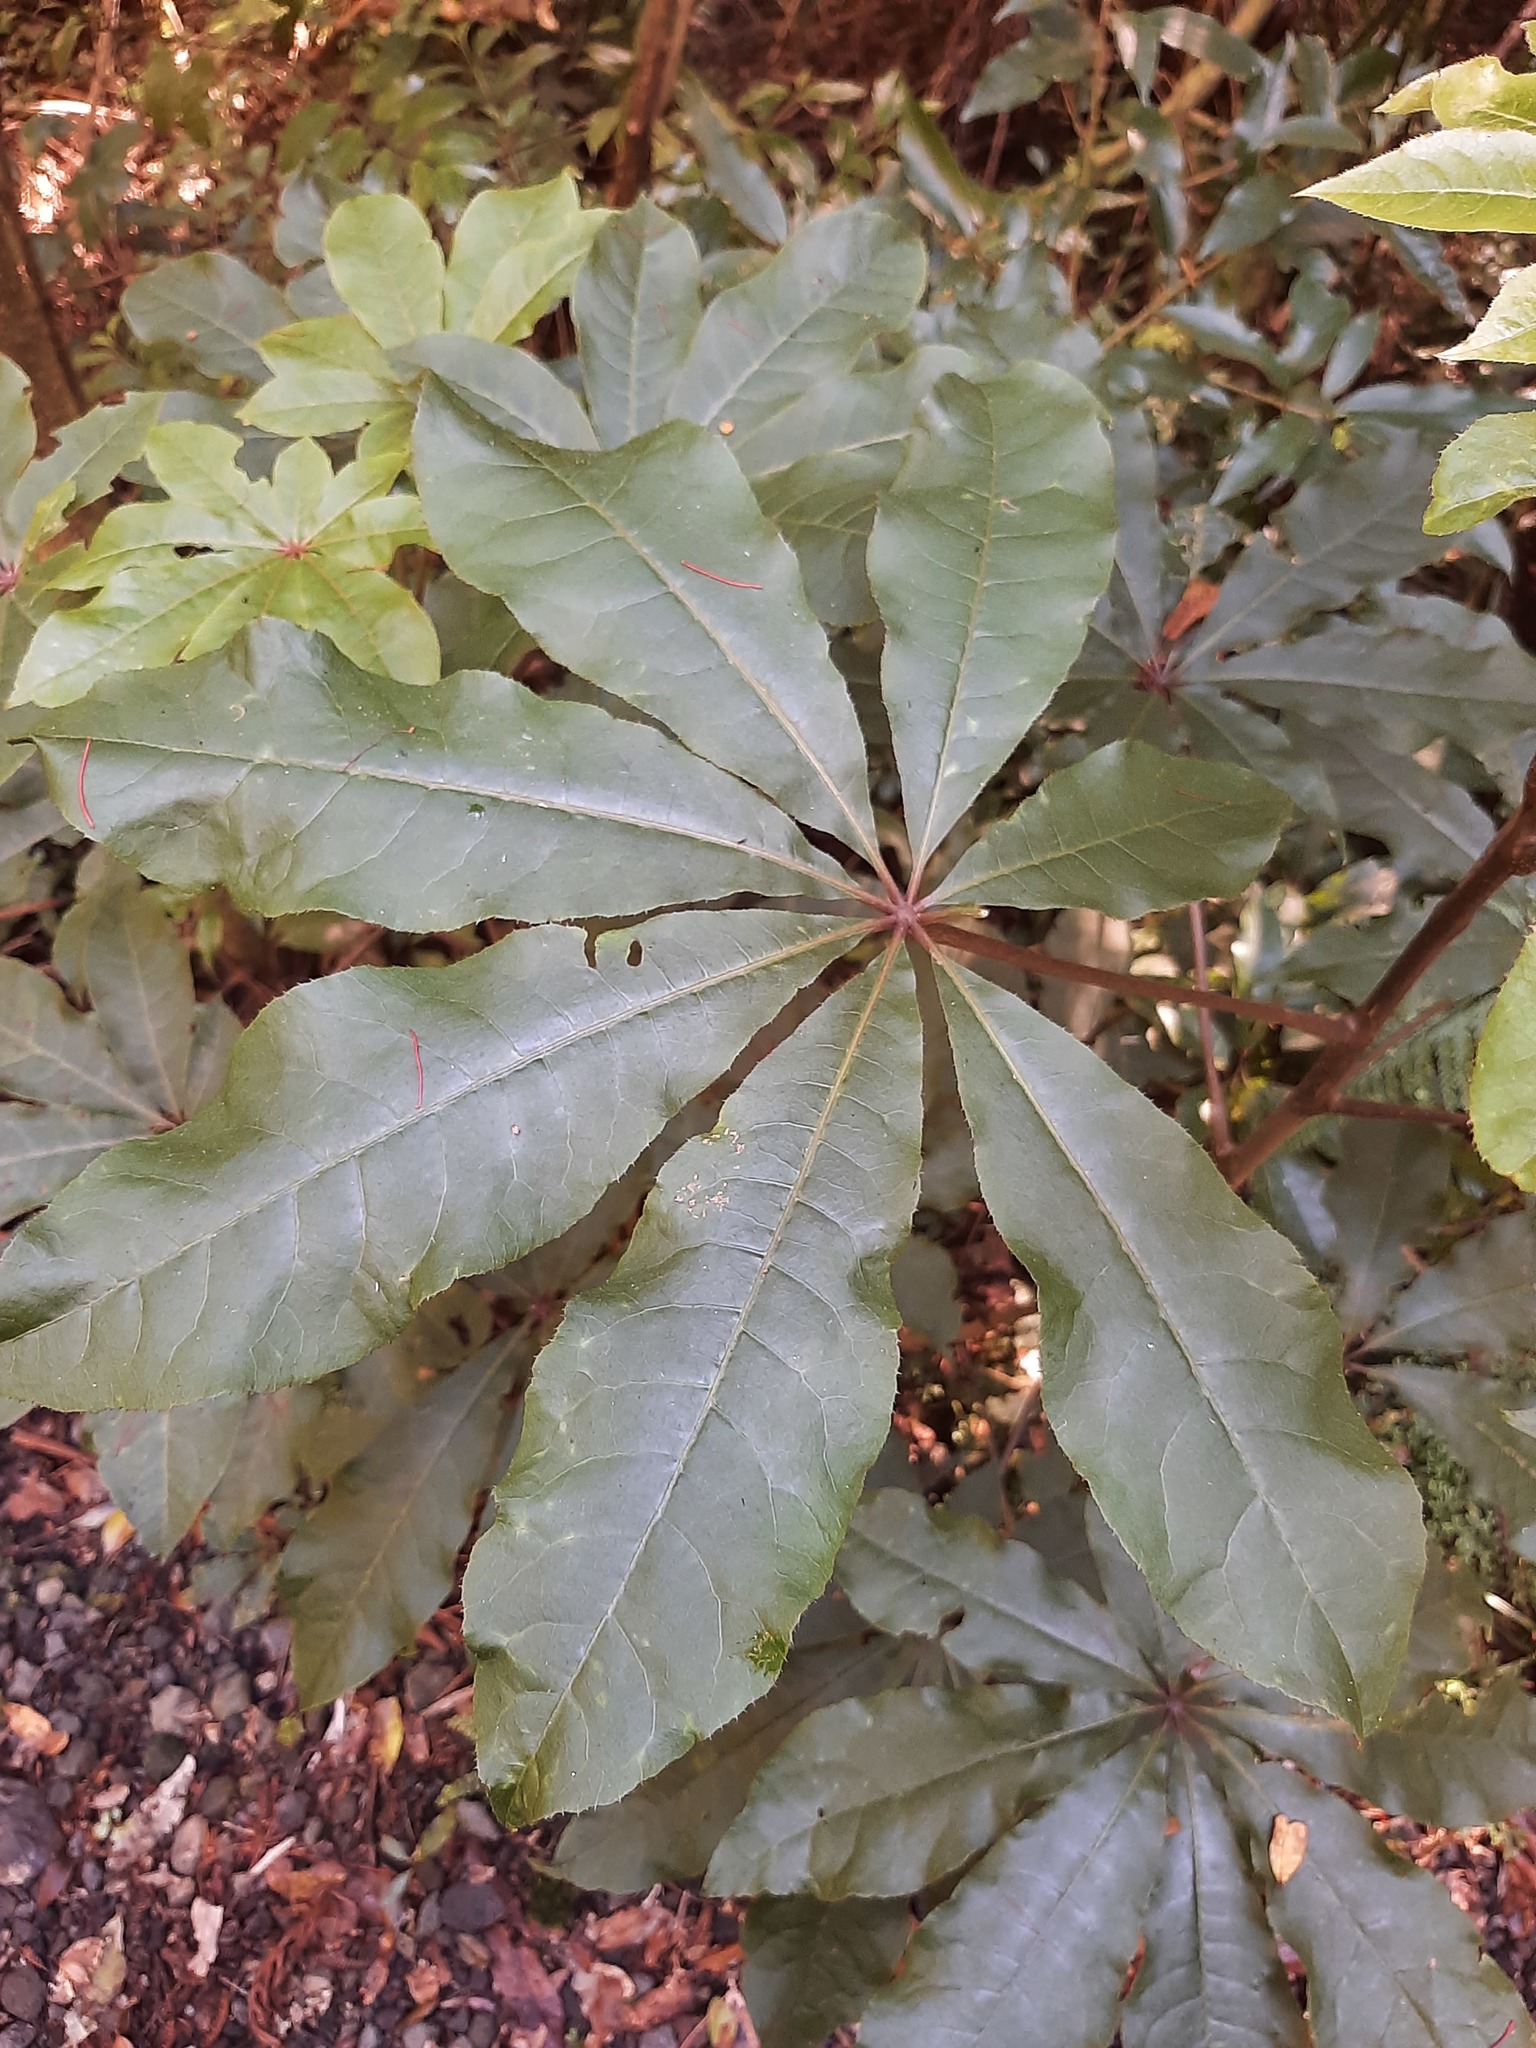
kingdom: Plantae
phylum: Tracheophyta
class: Magnoliopsida
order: Apiales
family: Araliaceae
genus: Schefflera
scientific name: Schefflera digitata
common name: Pate
